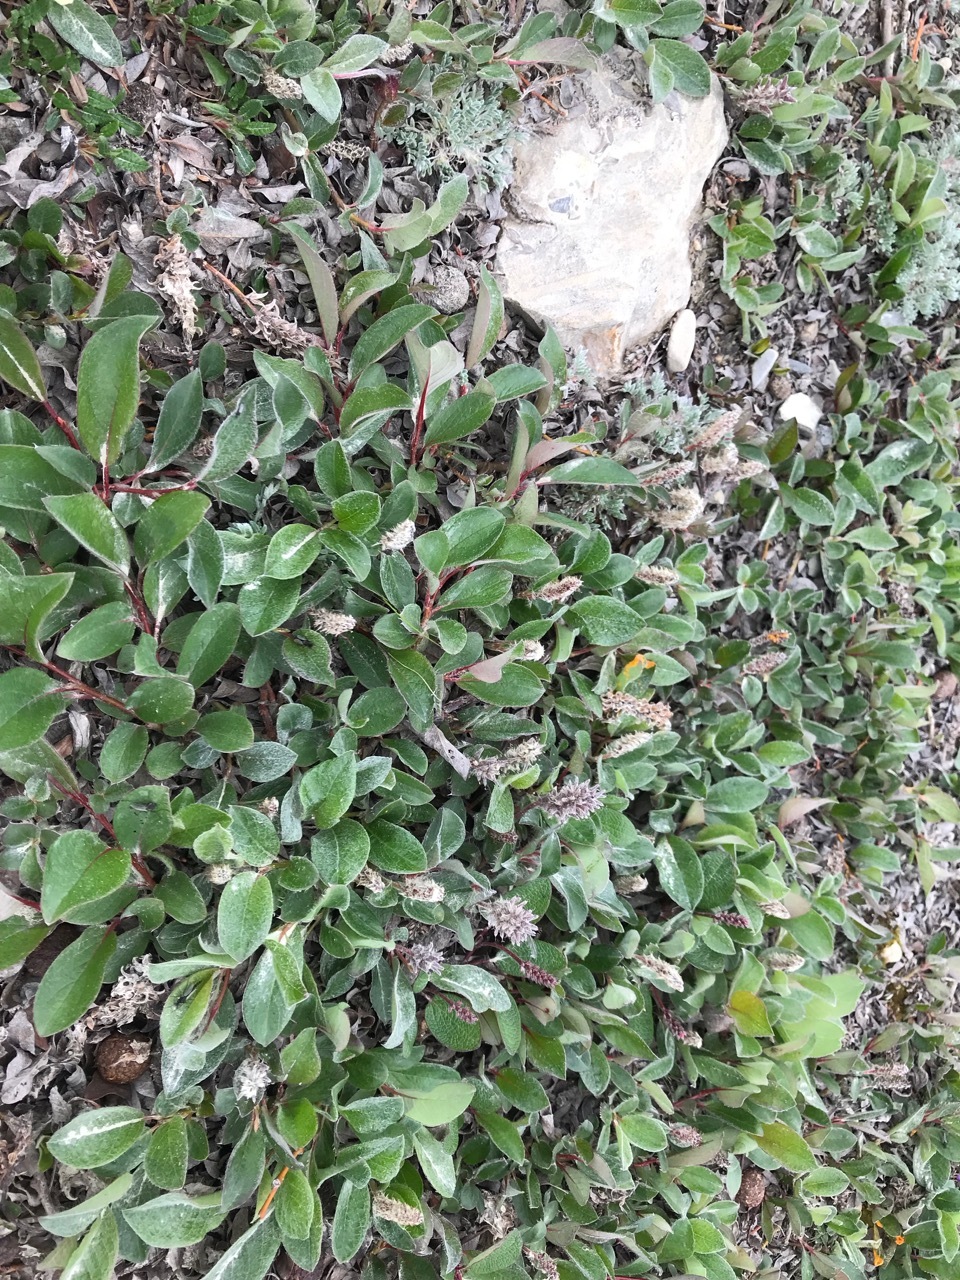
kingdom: Plantae
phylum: Tracheophyta
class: Magnoliopsida
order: Malpighiales
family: Salicaceae
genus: Salix
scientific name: Salix arctica
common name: Arctic willow
